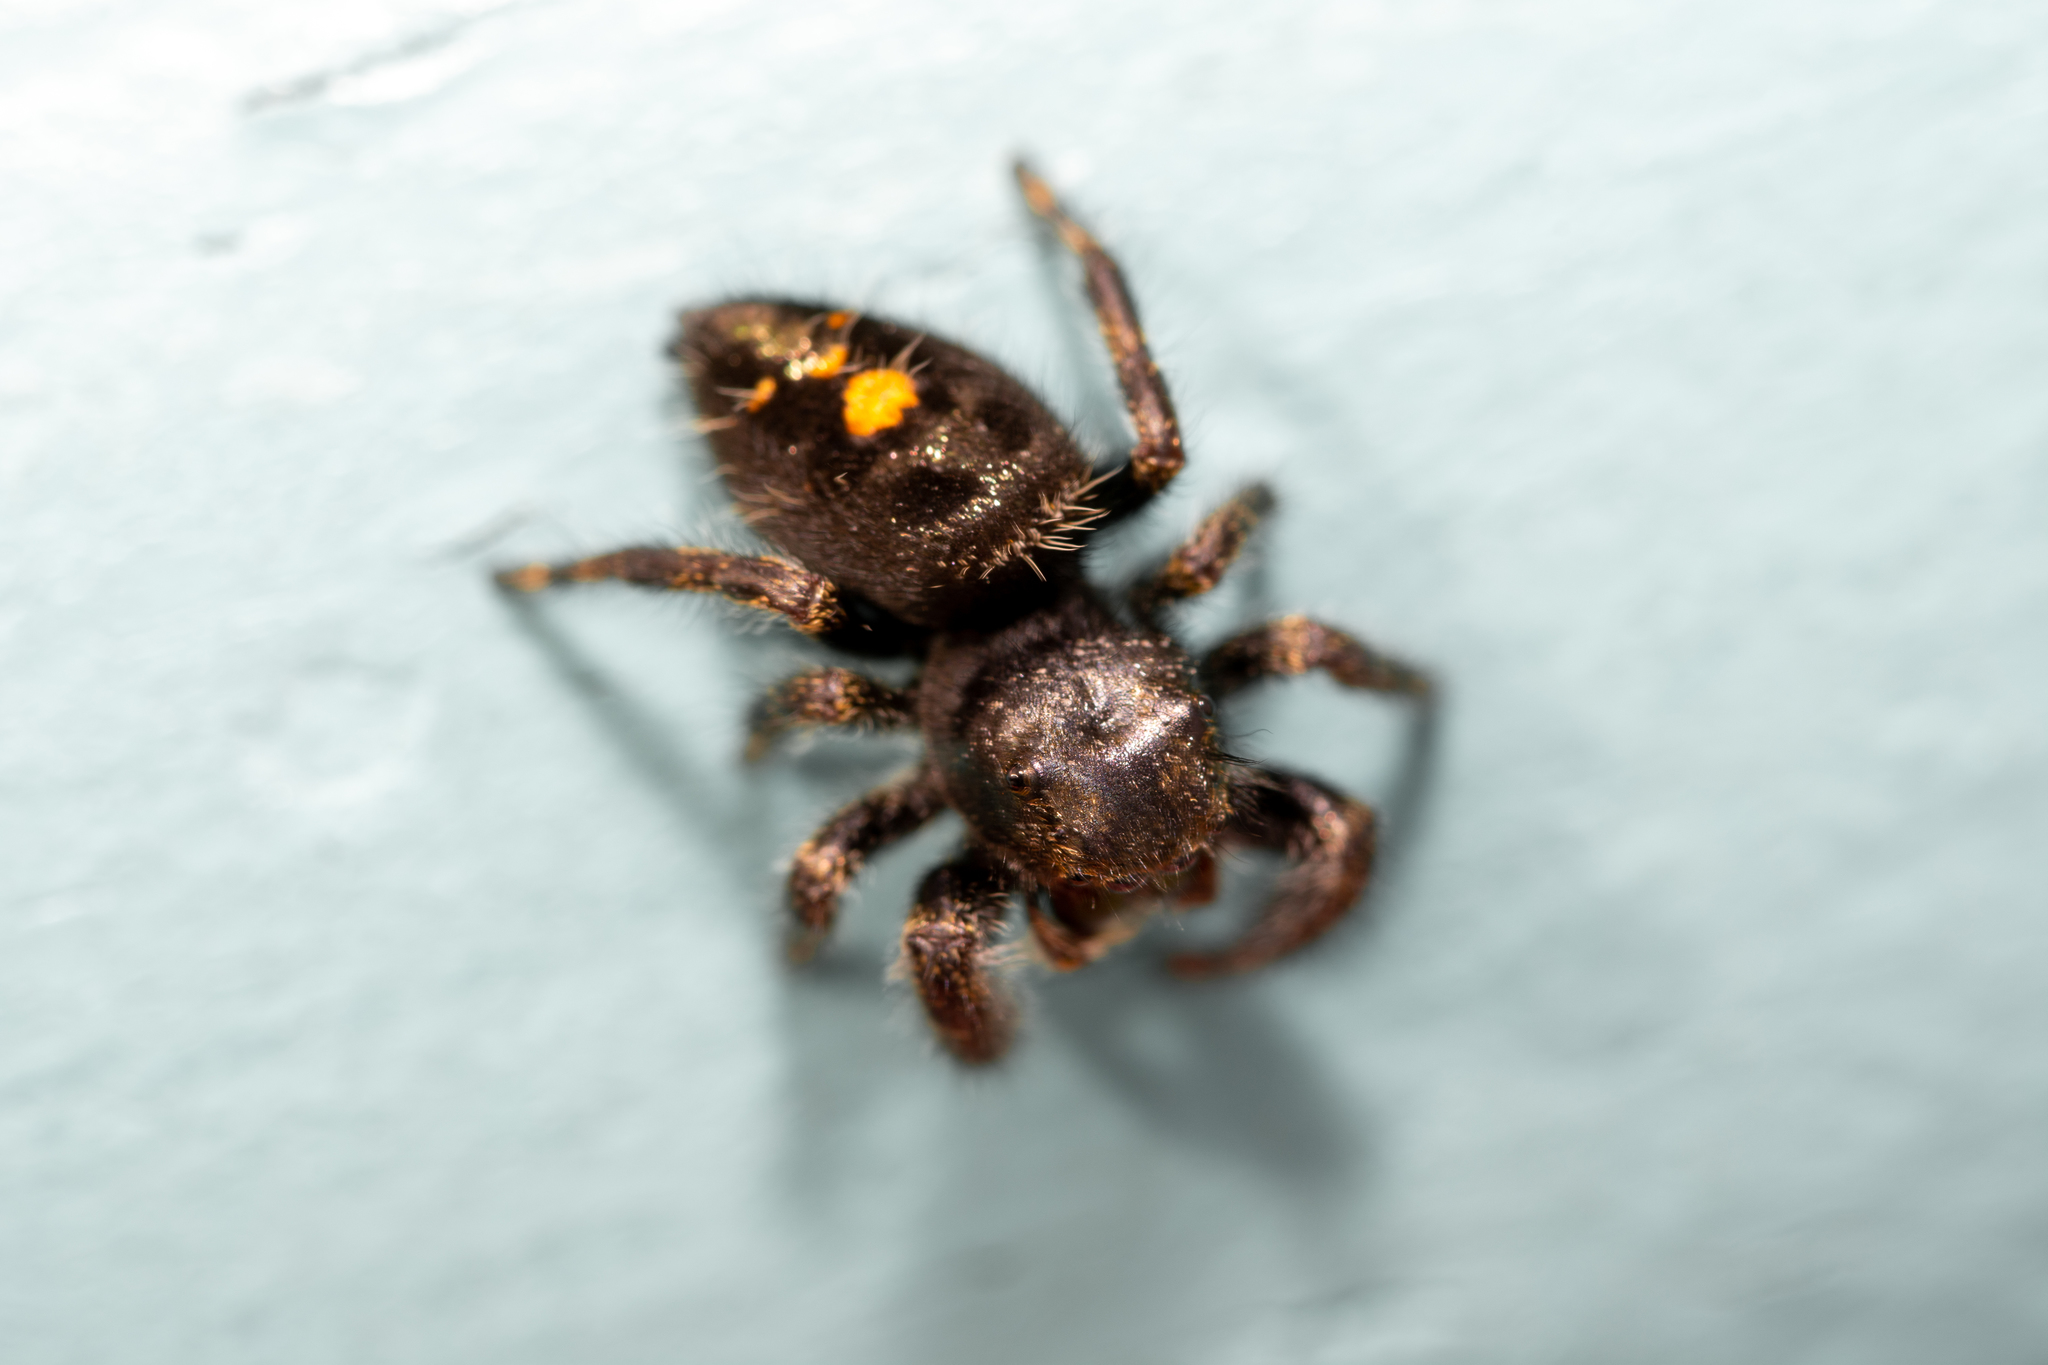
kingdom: Animalia
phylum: Arthropoda
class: Arachnida
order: Araneae
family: Salticidae
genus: Phidippus
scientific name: Phidippus audax
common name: Bold jumper
